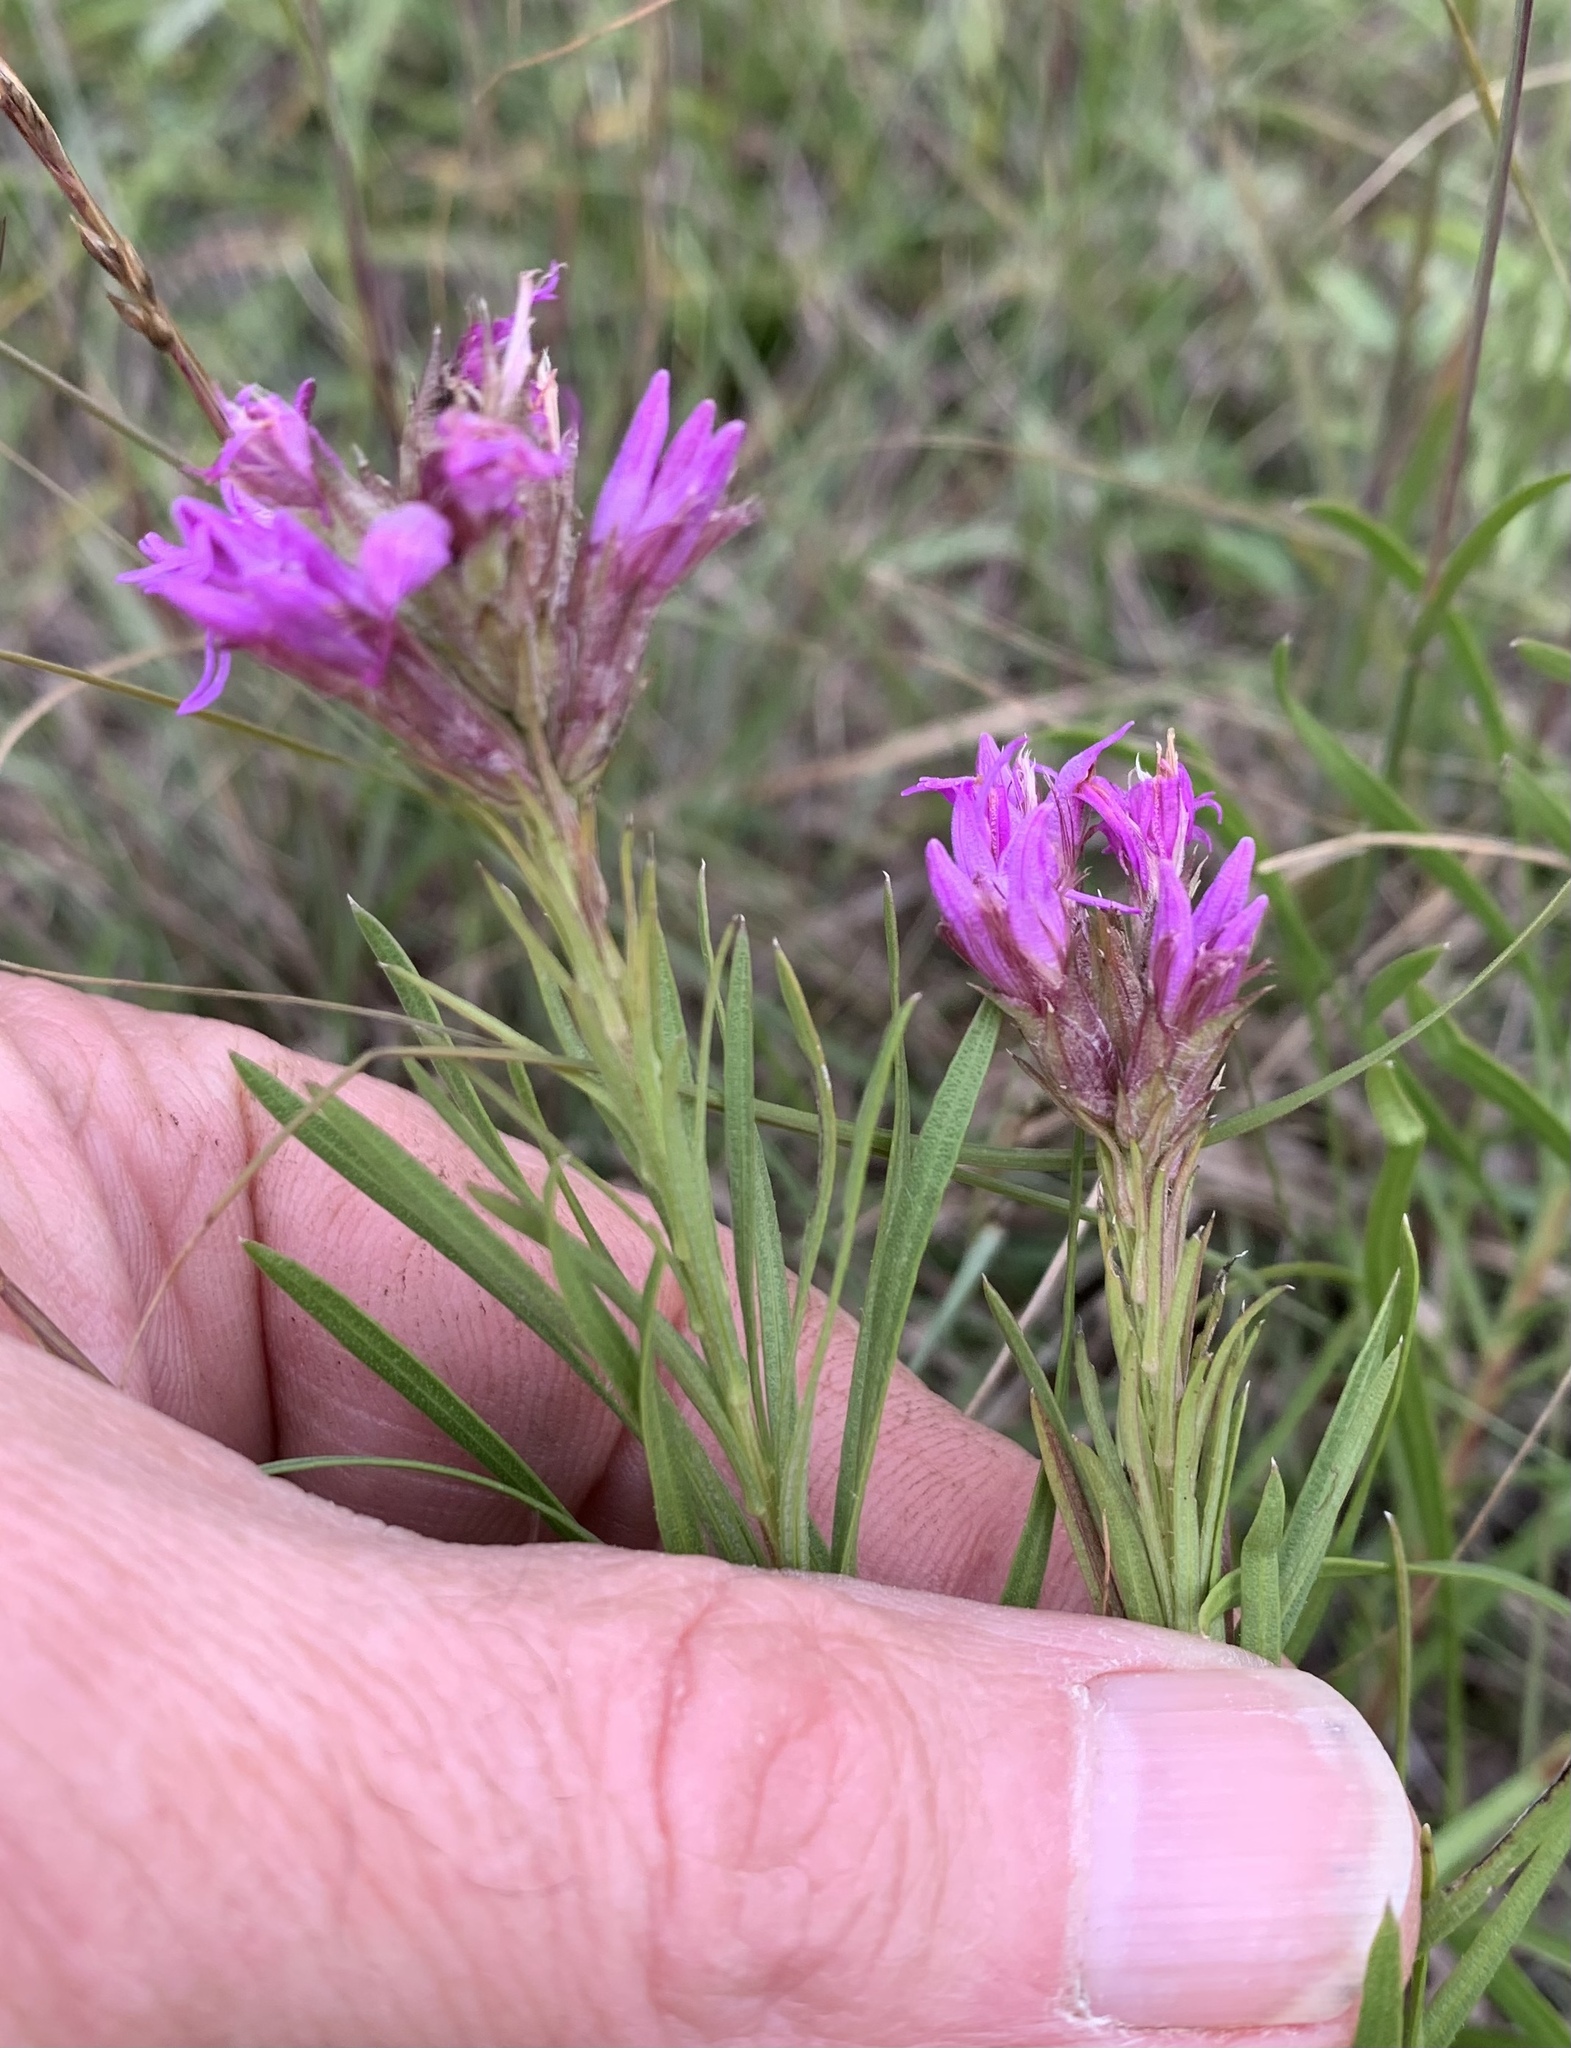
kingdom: Plantae
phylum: Tracheophyta
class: Magnoliopsida
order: Asterales
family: Asteraceae
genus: Liatris
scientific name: Liatris punctata
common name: Dotted gayfeather
